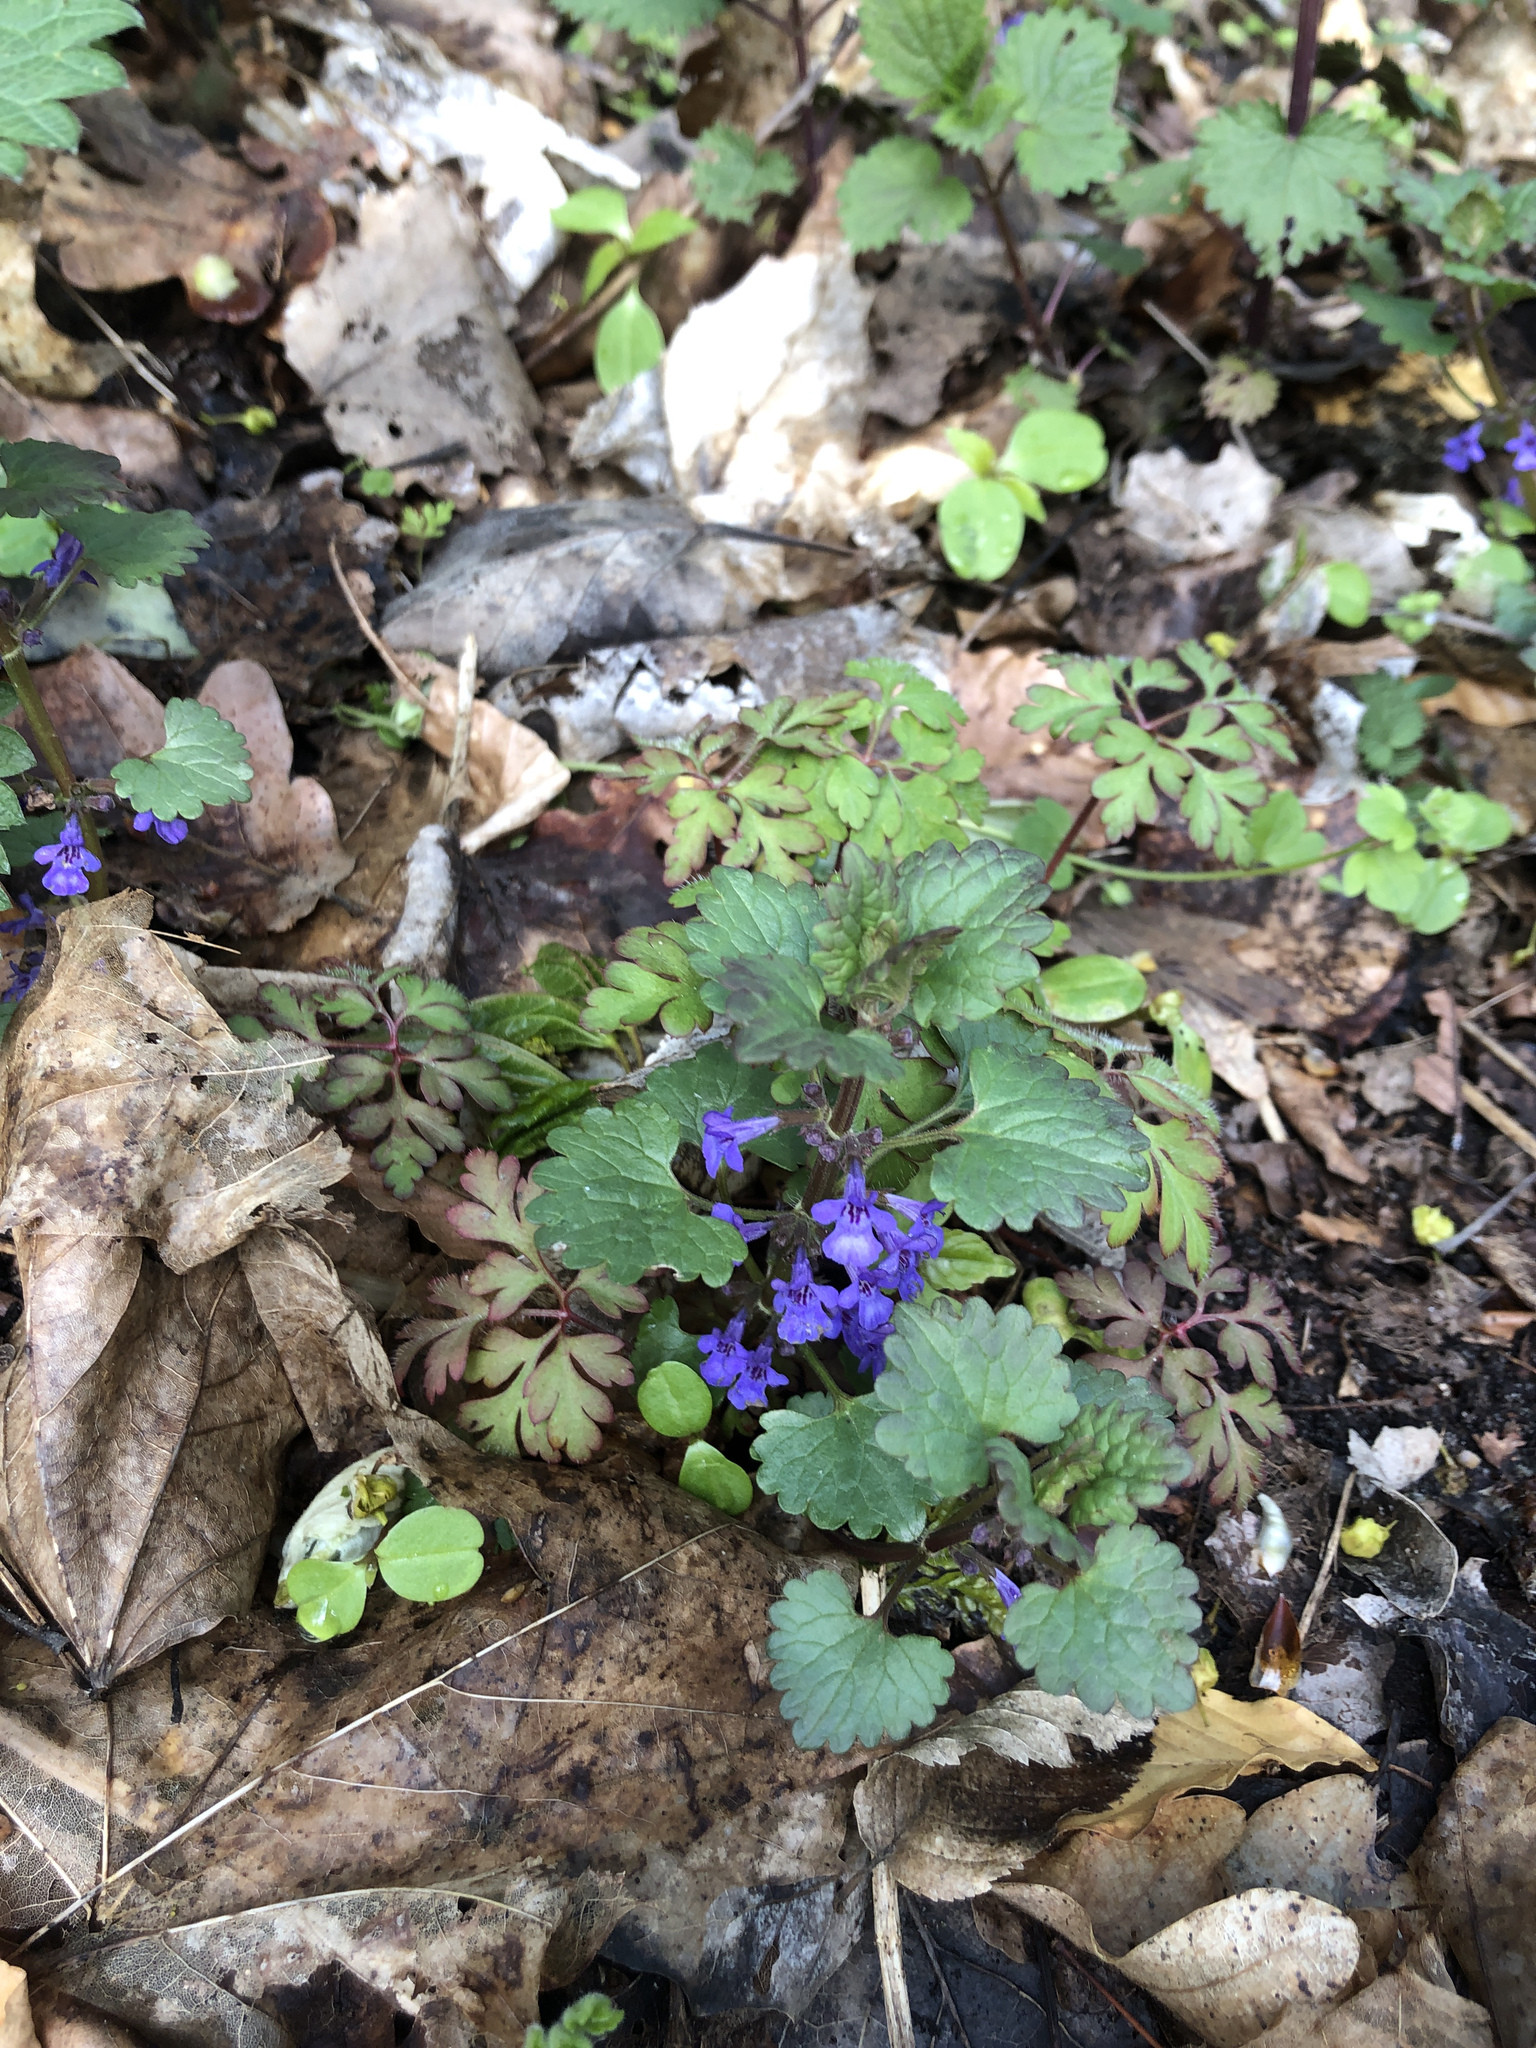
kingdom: Plantae
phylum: Tracheophyta
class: Magnoliopsida
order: Lamiales
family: Lamiaceae
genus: Glechoma
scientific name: Glechoma hederacea
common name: Ground ivy
